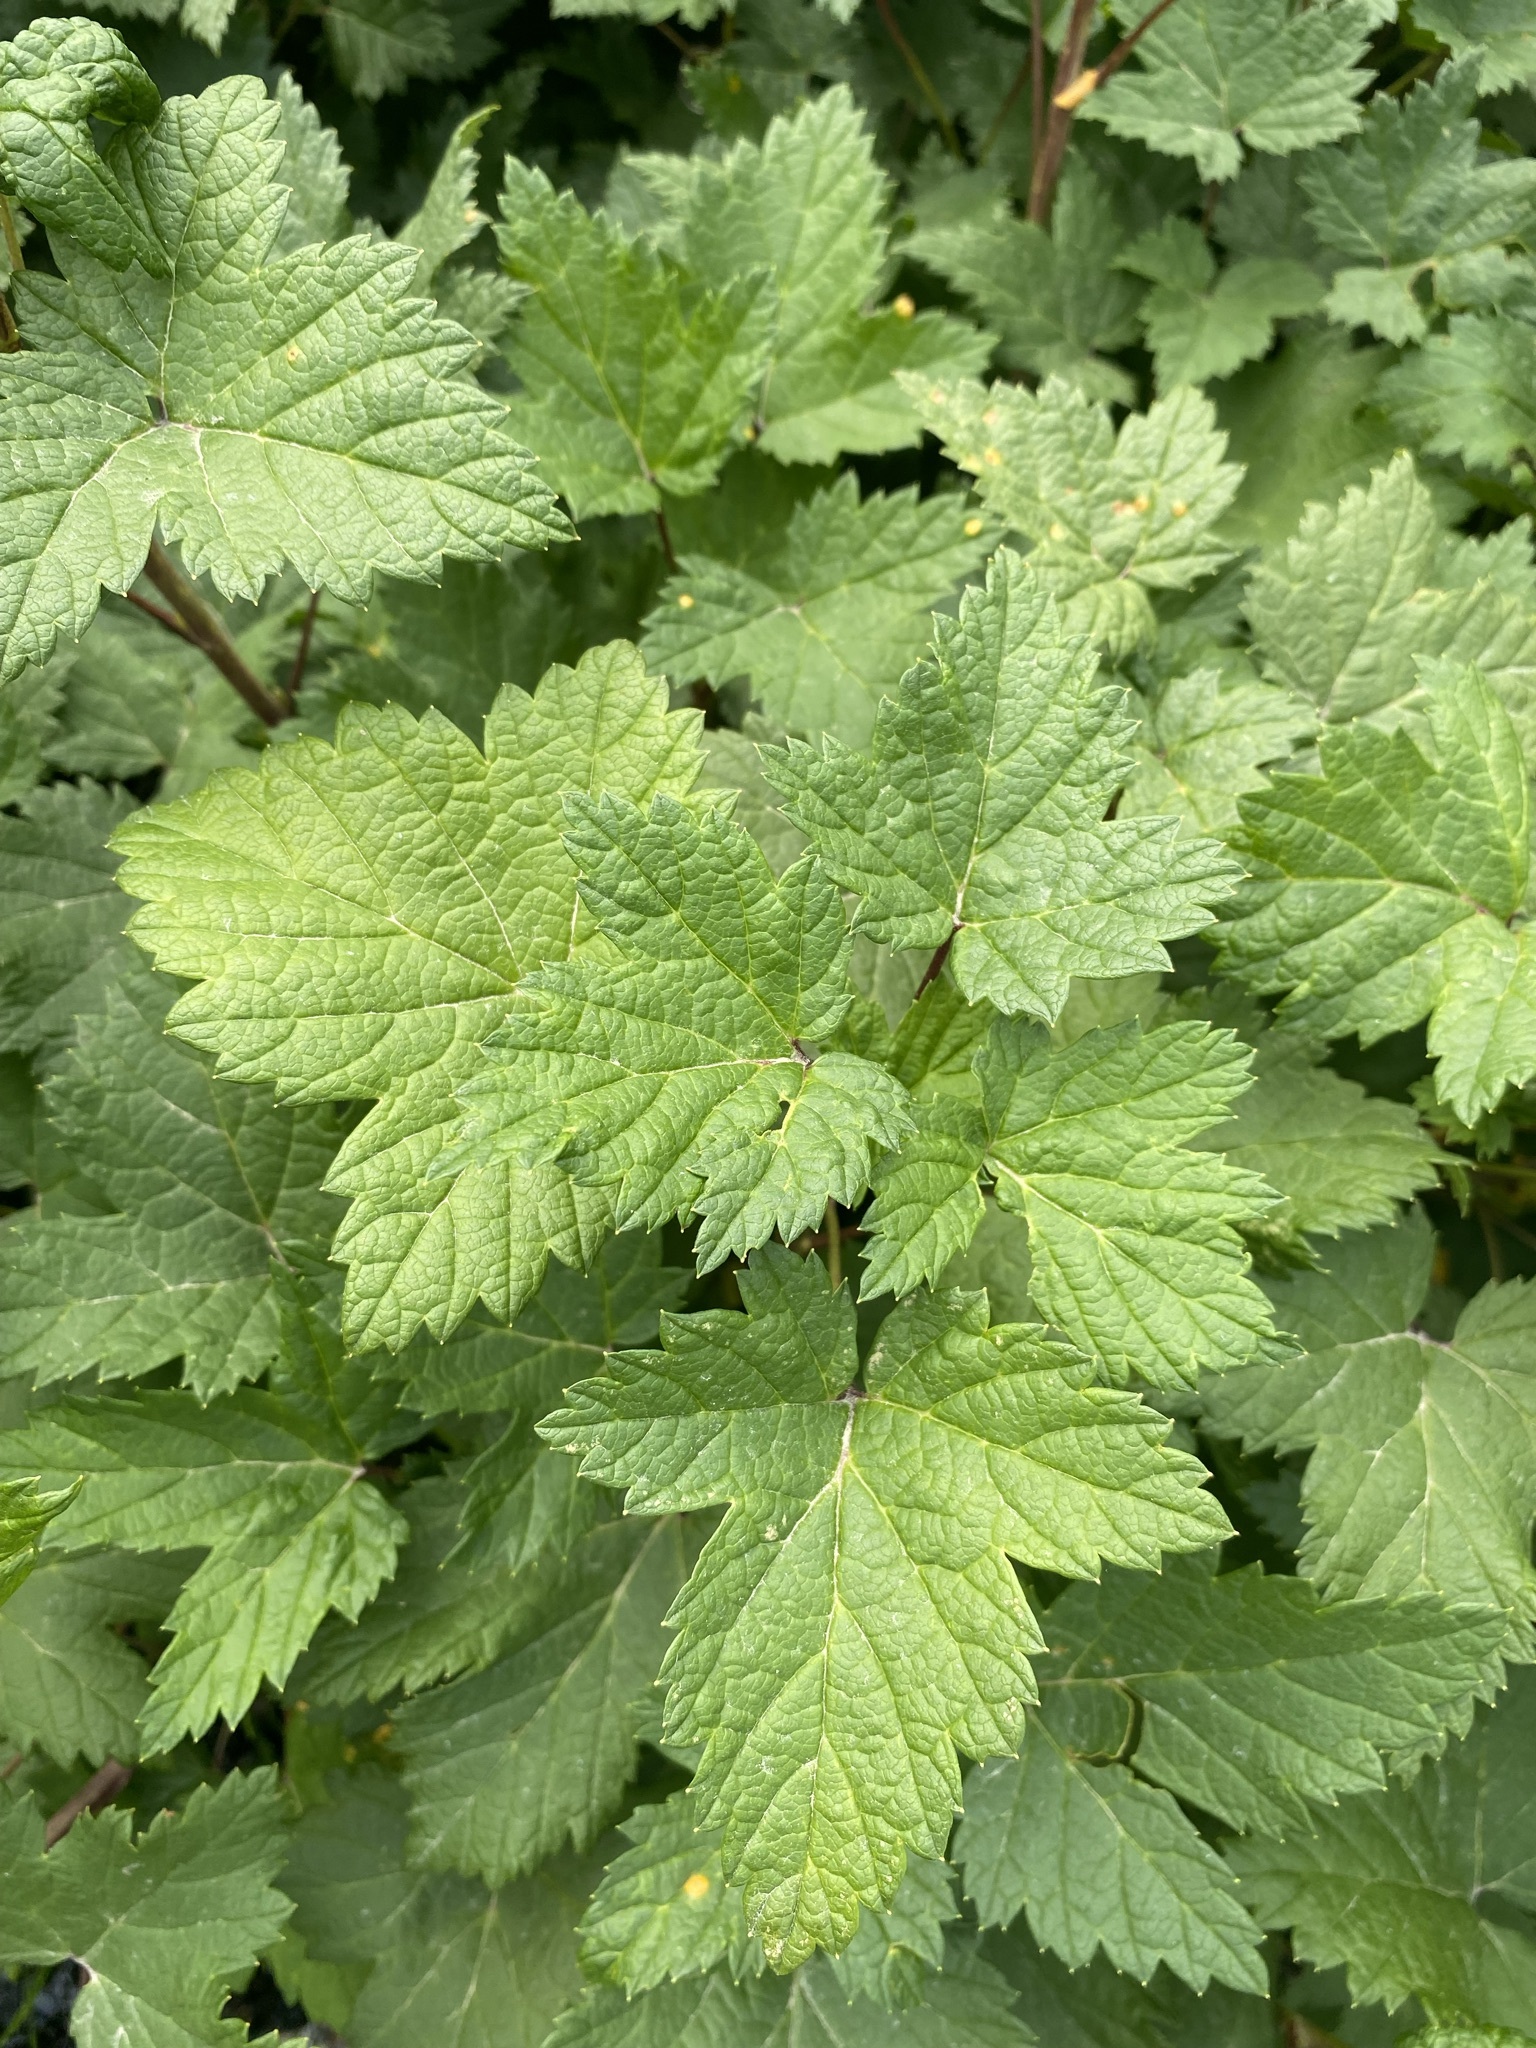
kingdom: Plantae
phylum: Tracheophyta
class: Magnoliopsida
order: Saxifragales
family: Grossulariaceae
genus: Ribes
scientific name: Ribes hudsonianum
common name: Northern black currant
